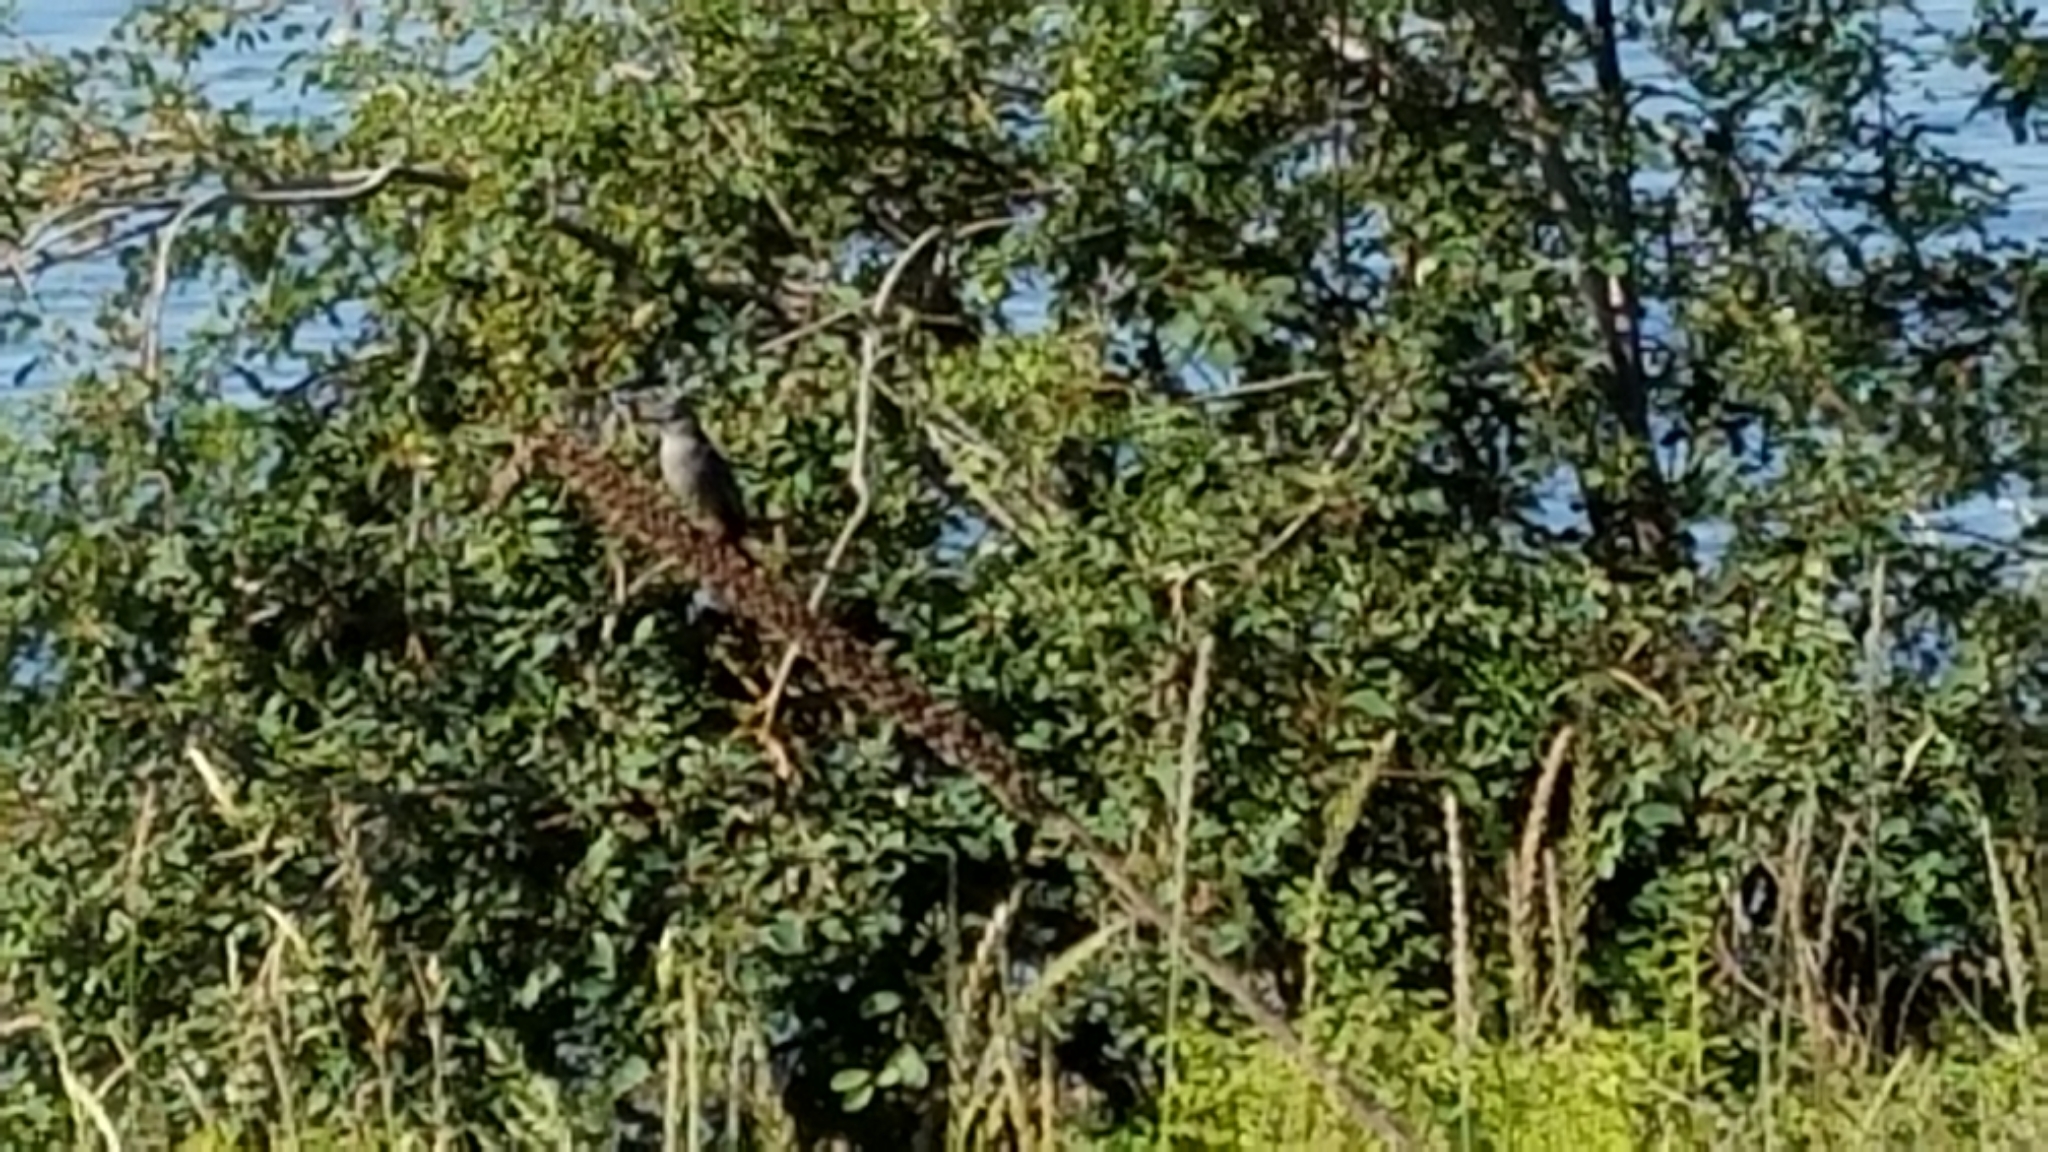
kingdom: Animalia
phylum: Chordata
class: Aves
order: Passeriformes
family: Mimidae
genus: Dumetella
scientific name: Dumetella carolinensis
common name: Gray catbird
